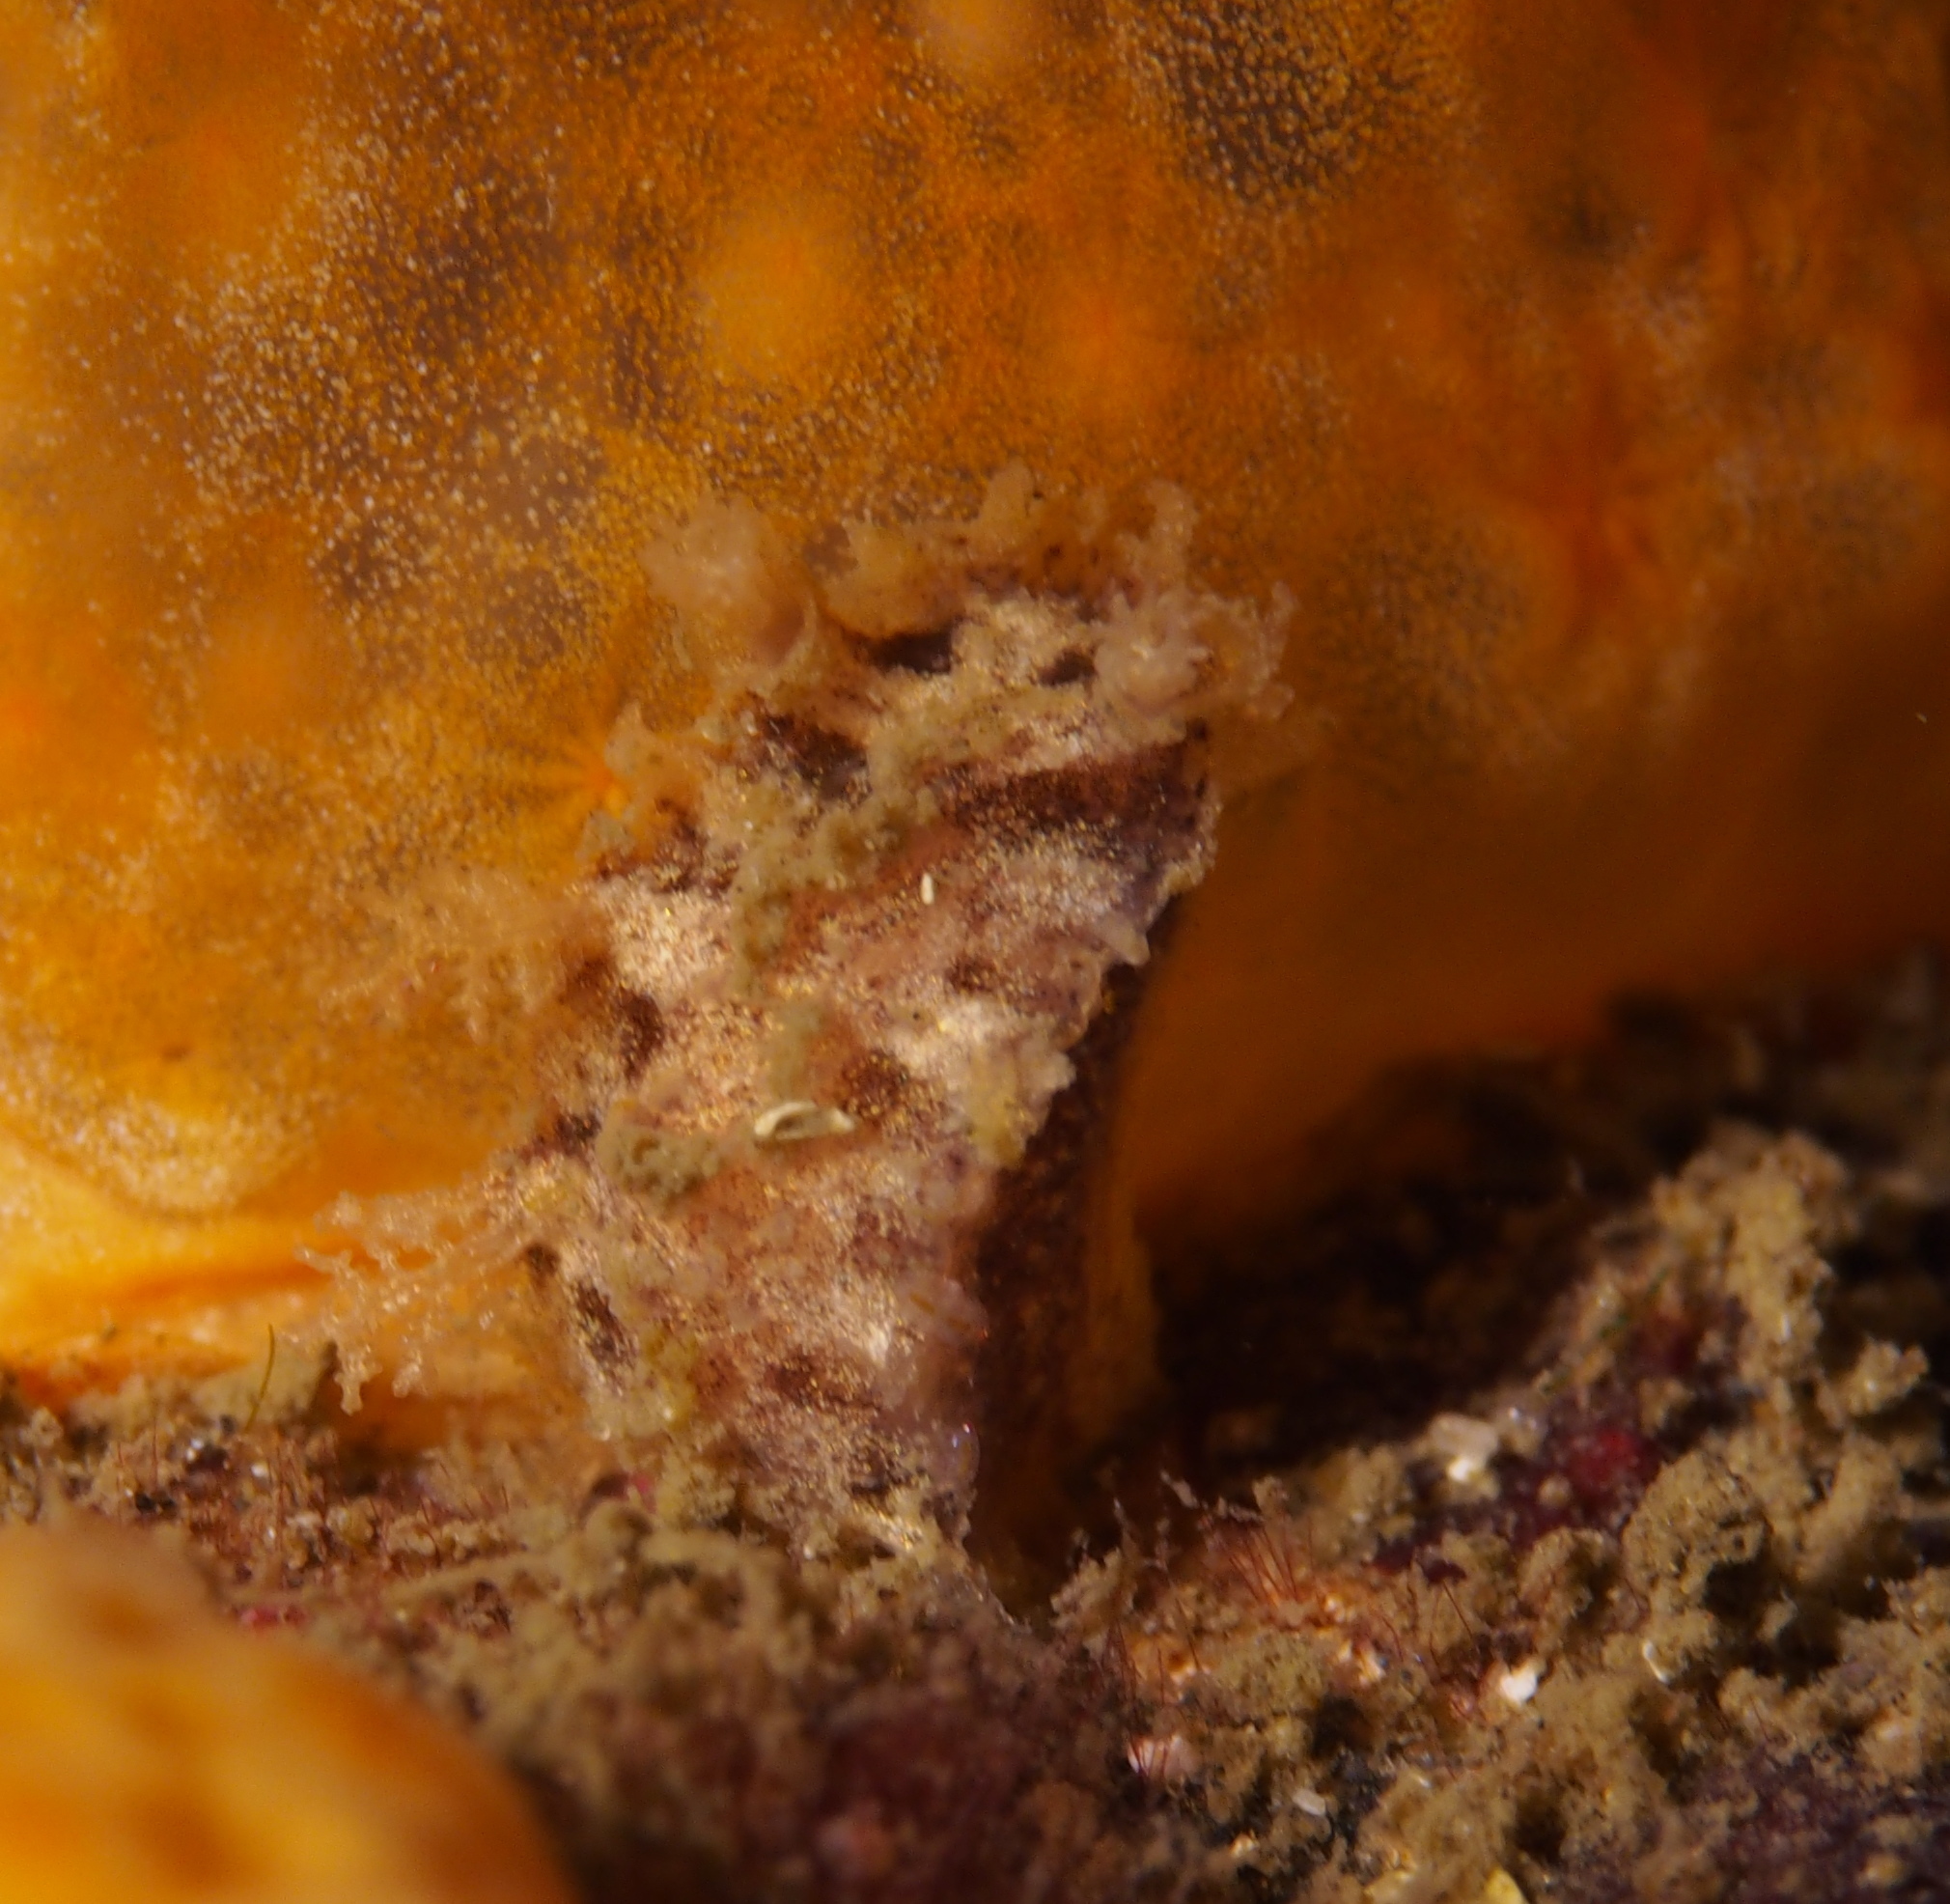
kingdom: Animalia
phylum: Mollusca
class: Gastropoda
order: Nudibranchia
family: Tritoniidae
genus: Duvaucelia
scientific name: Duvaucelia plebeia
